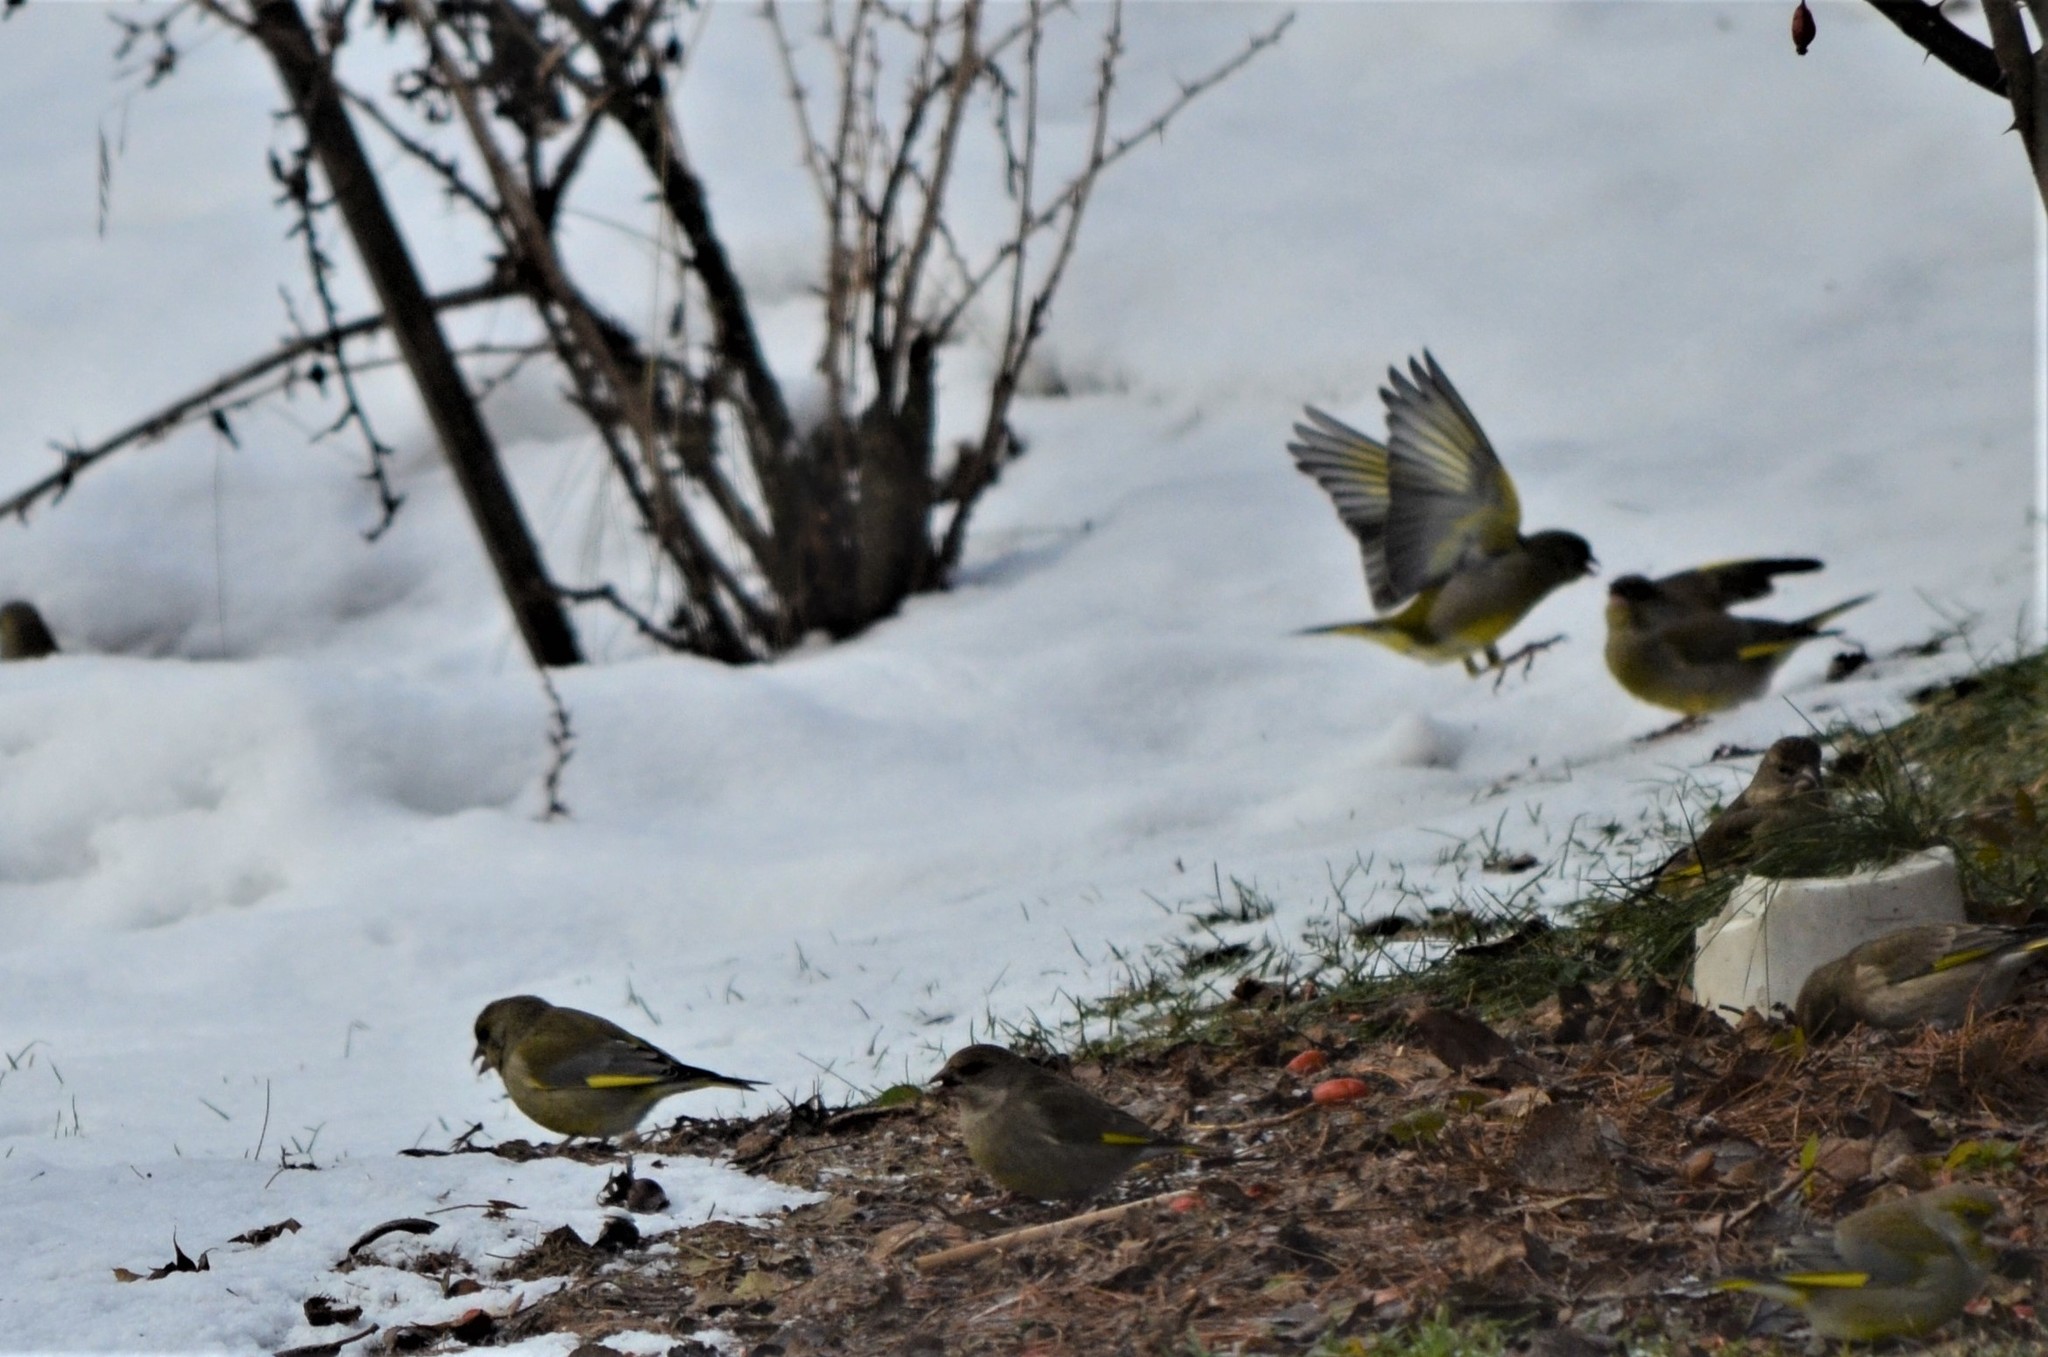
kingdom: Plantae
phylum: Tracheophyta
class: Liliopsida
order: Poales
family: Poaceae
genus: Chloris
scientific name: Chloris chloris
